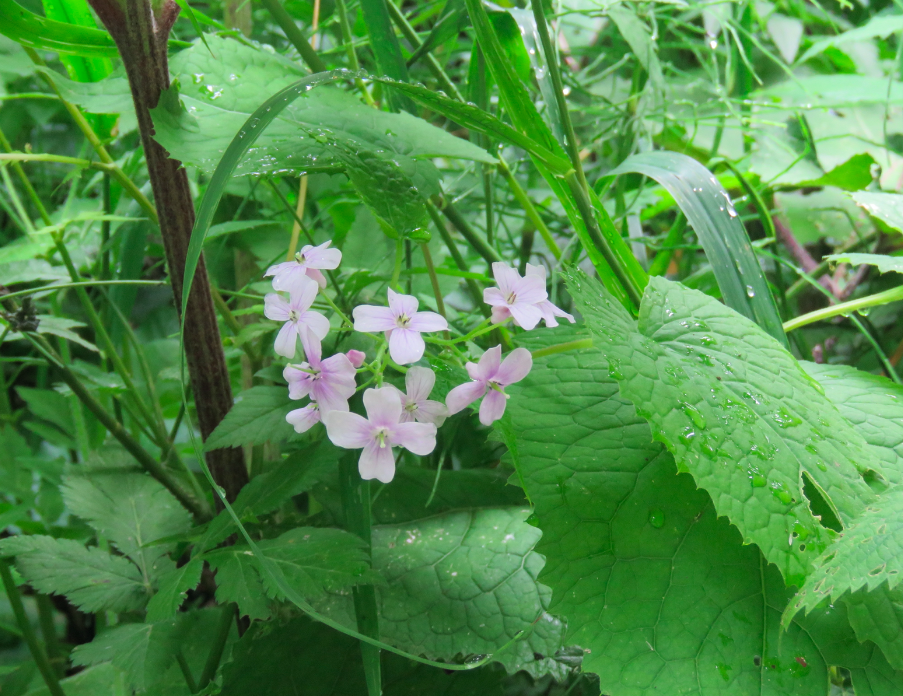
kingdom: Plantae
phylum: Tracheophyta
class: Magnoliopsida
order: Brassicales
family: Brassicaceae
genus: Lunaria
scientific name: Lunaria rediviva
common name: Perennial honesty
